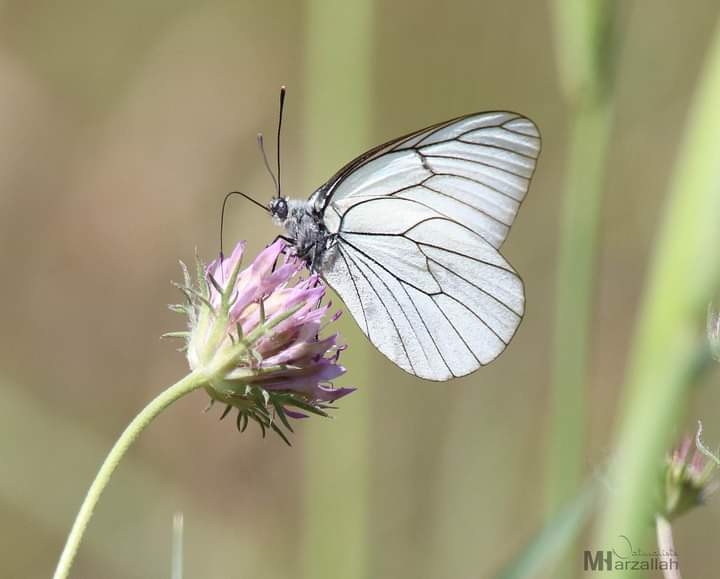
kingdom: Animalia
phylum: Arthropoda
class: Insecta
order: Lepidoptera
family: Pieridae
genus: Aporia
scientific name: Aporia crataegi
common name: Black-veined white
